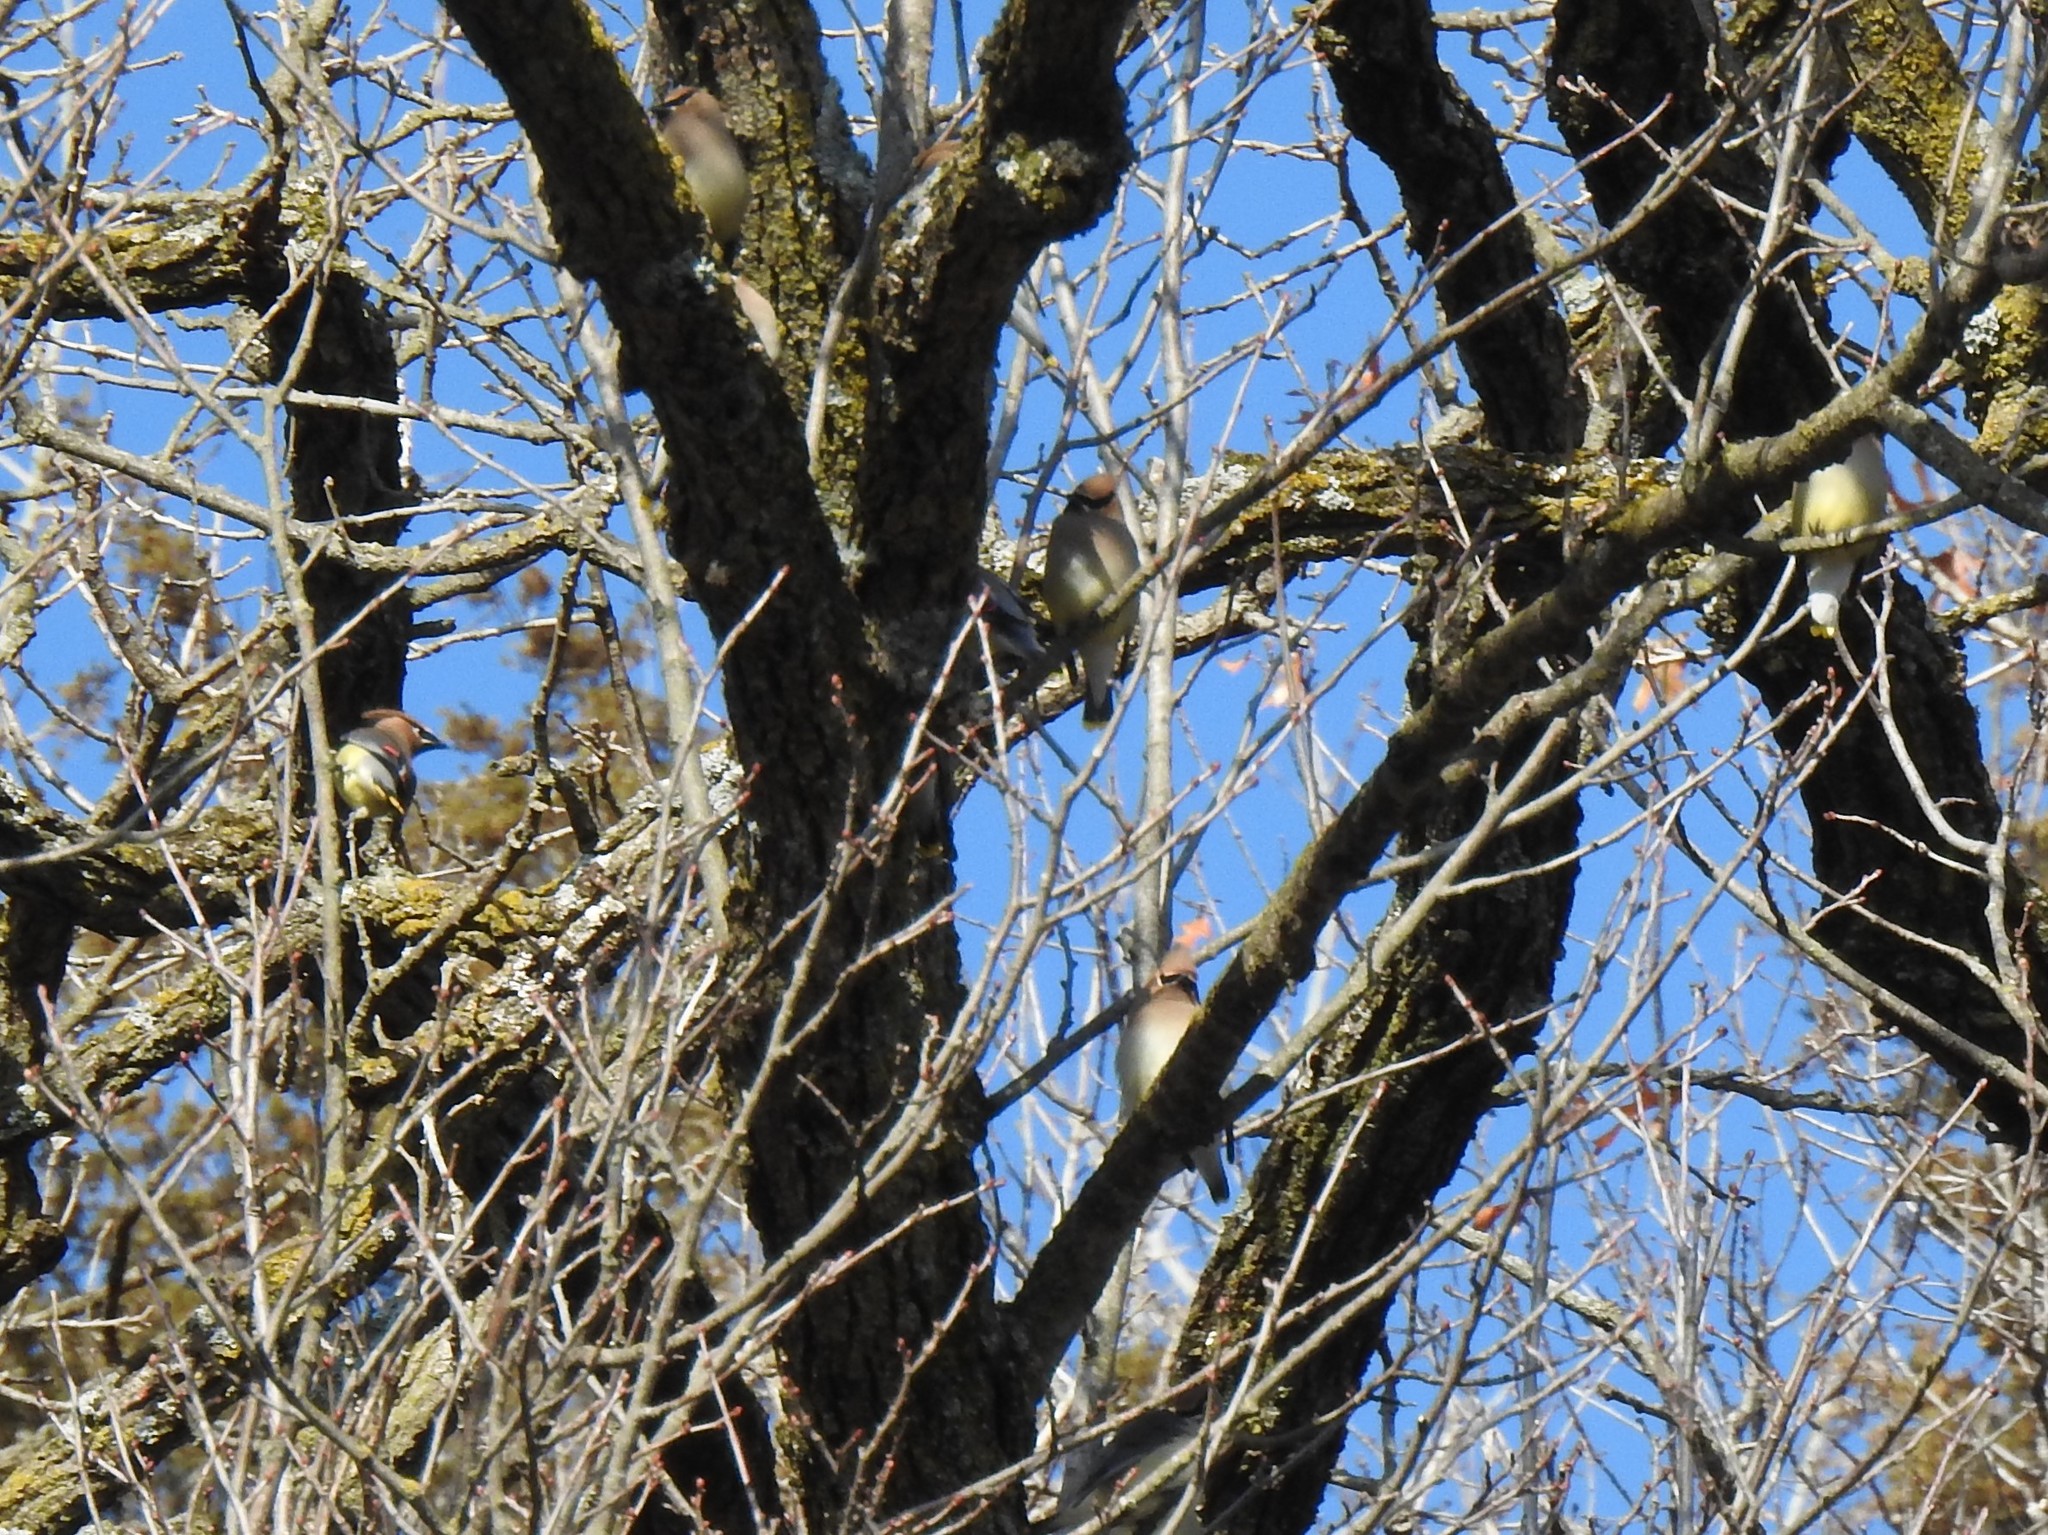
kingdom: Animalia
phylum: Chordata
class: Aves
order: Passeriformes
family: Bombycillidae
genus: Bombycilla
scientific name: Bombycilla cedrorum
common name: Cedar waxwing
